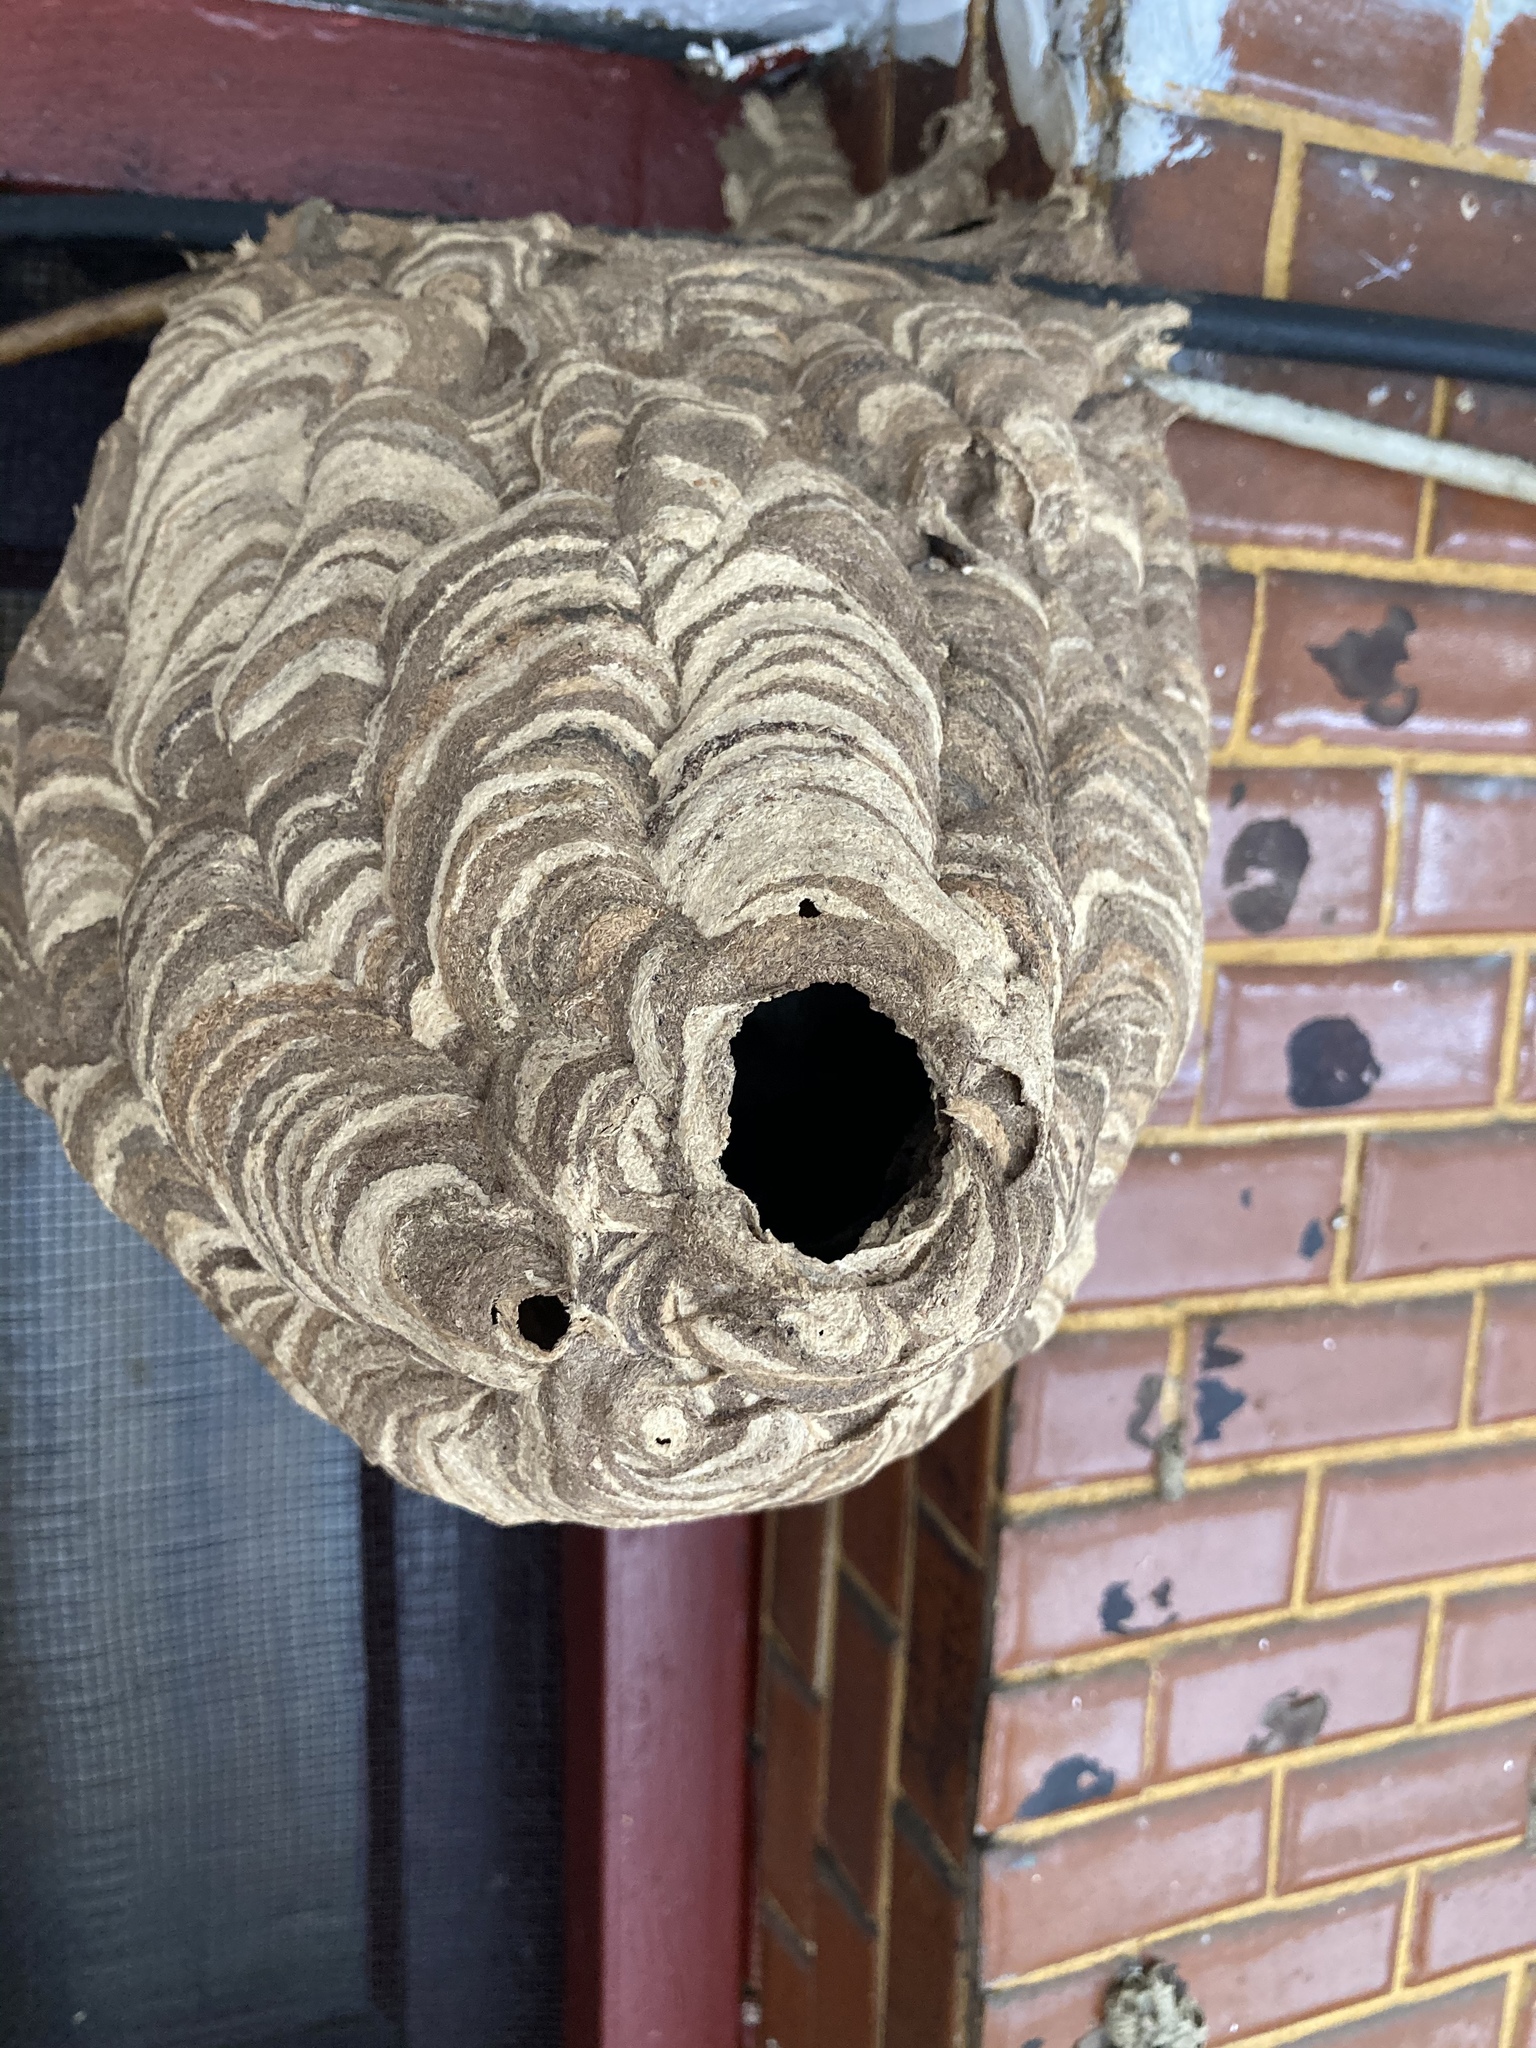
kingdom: Animalia
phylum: Arthropoda
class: Insecta
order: Hymenoptera
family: Vespidae
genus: Vespa
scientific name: Vespa affinis
